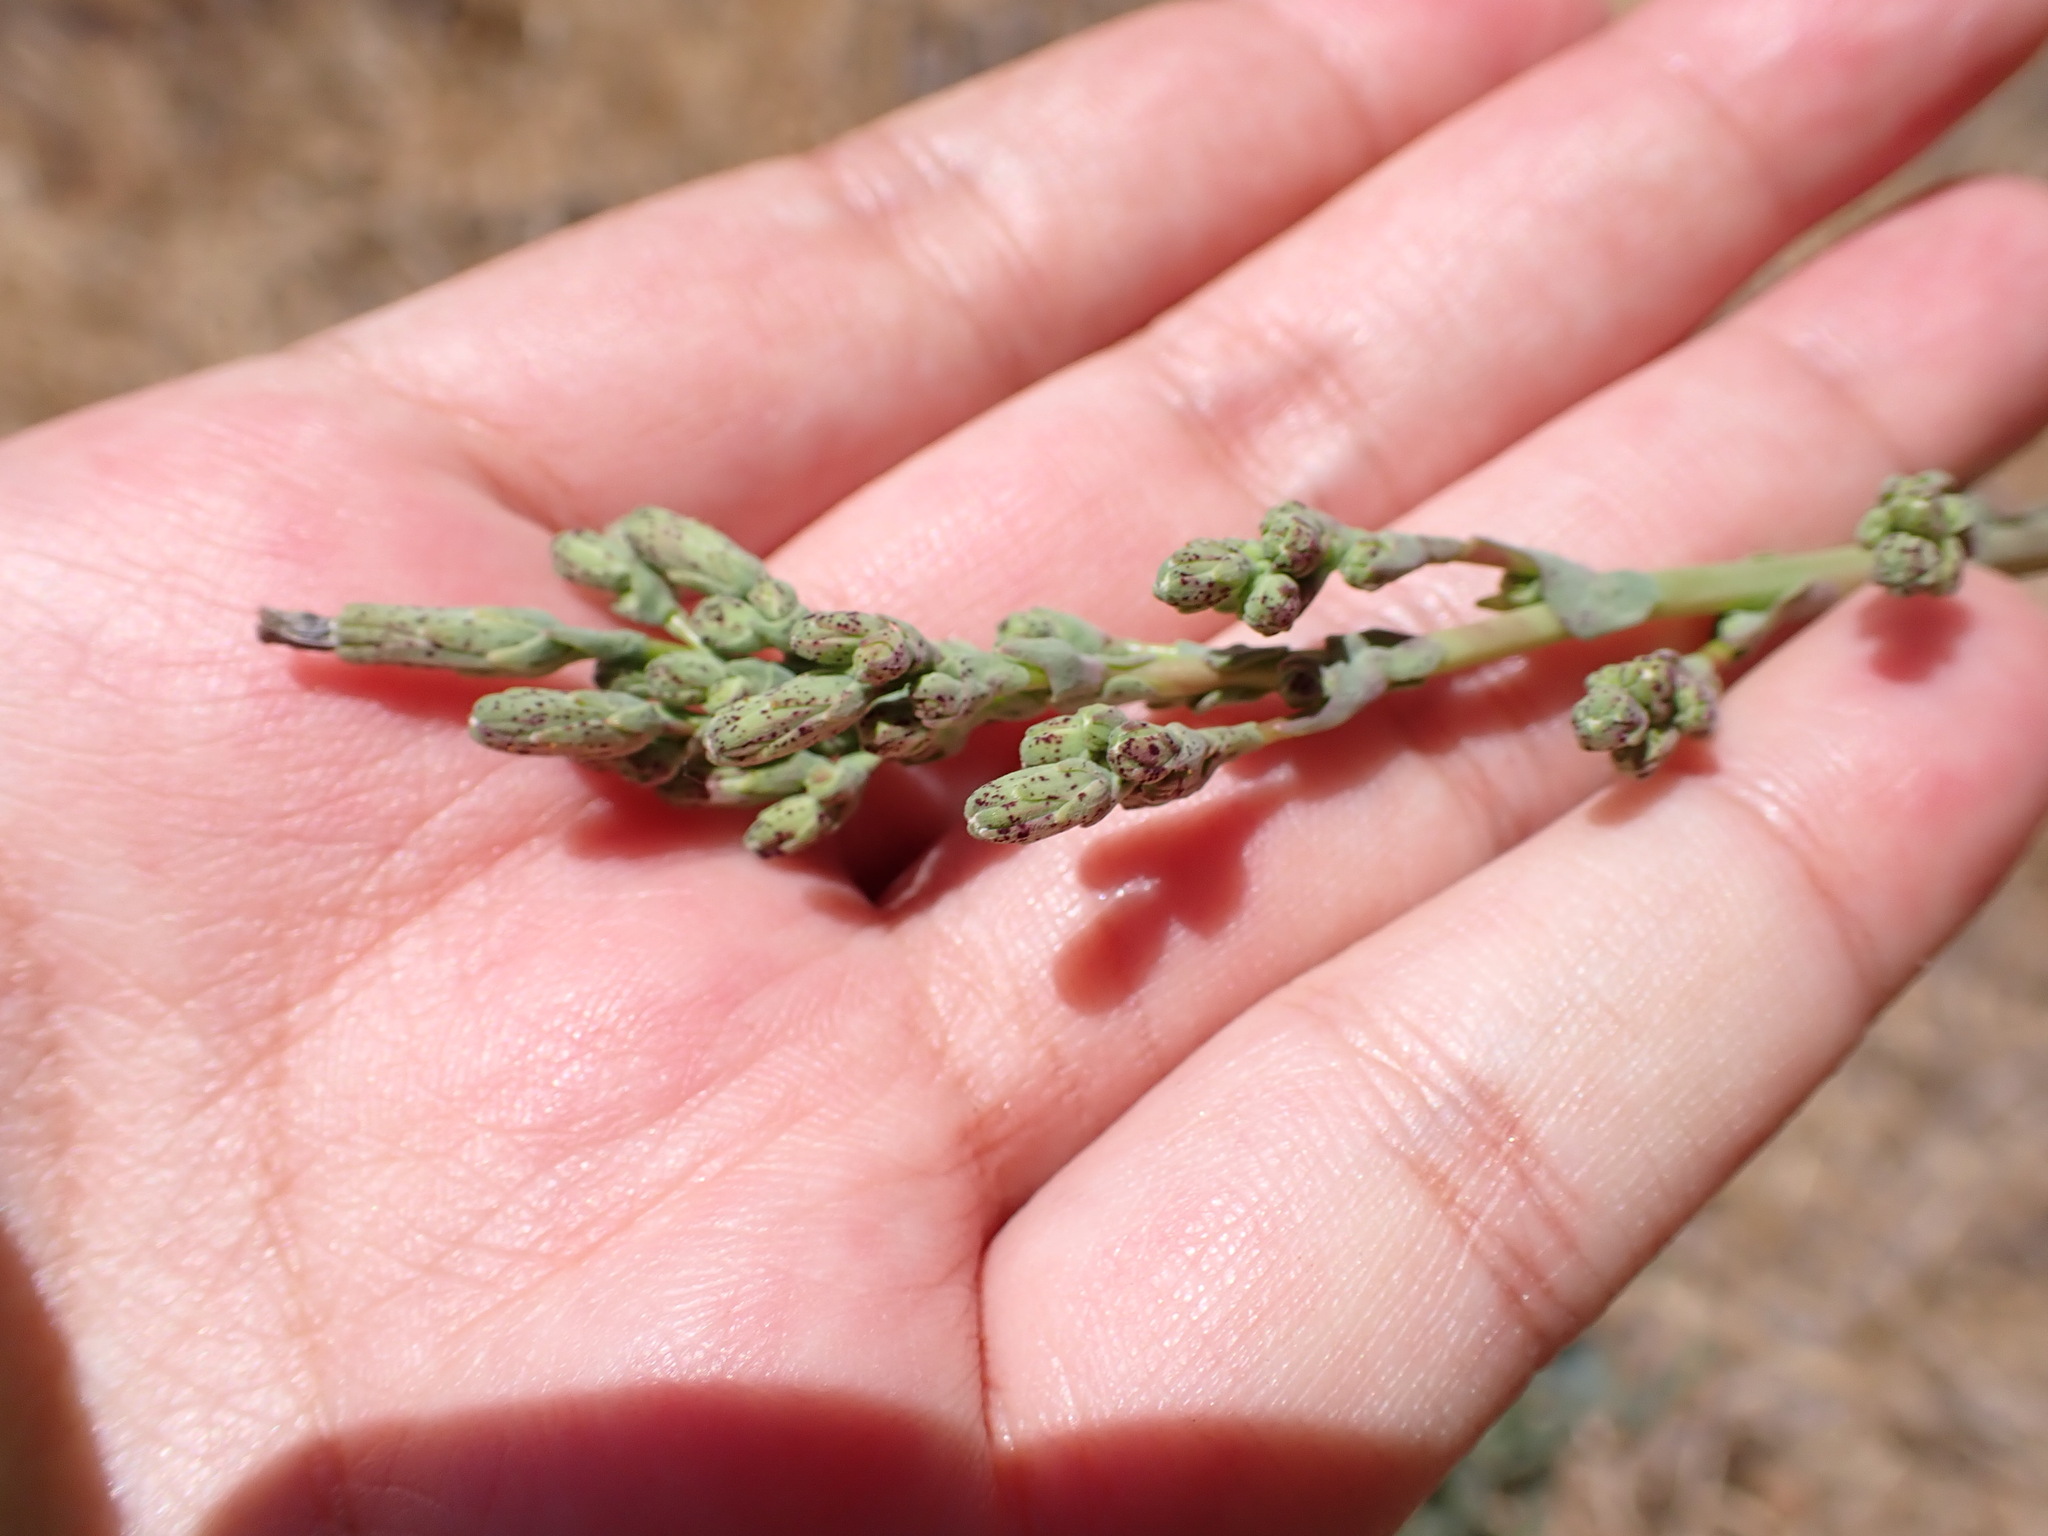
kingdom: Plantae
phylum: Tracheophyta
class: Magnoliopsida
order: Asterales
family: Asteraceae
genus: Lactuca
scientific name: Lactuca serriola
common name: Prickly lettuce
